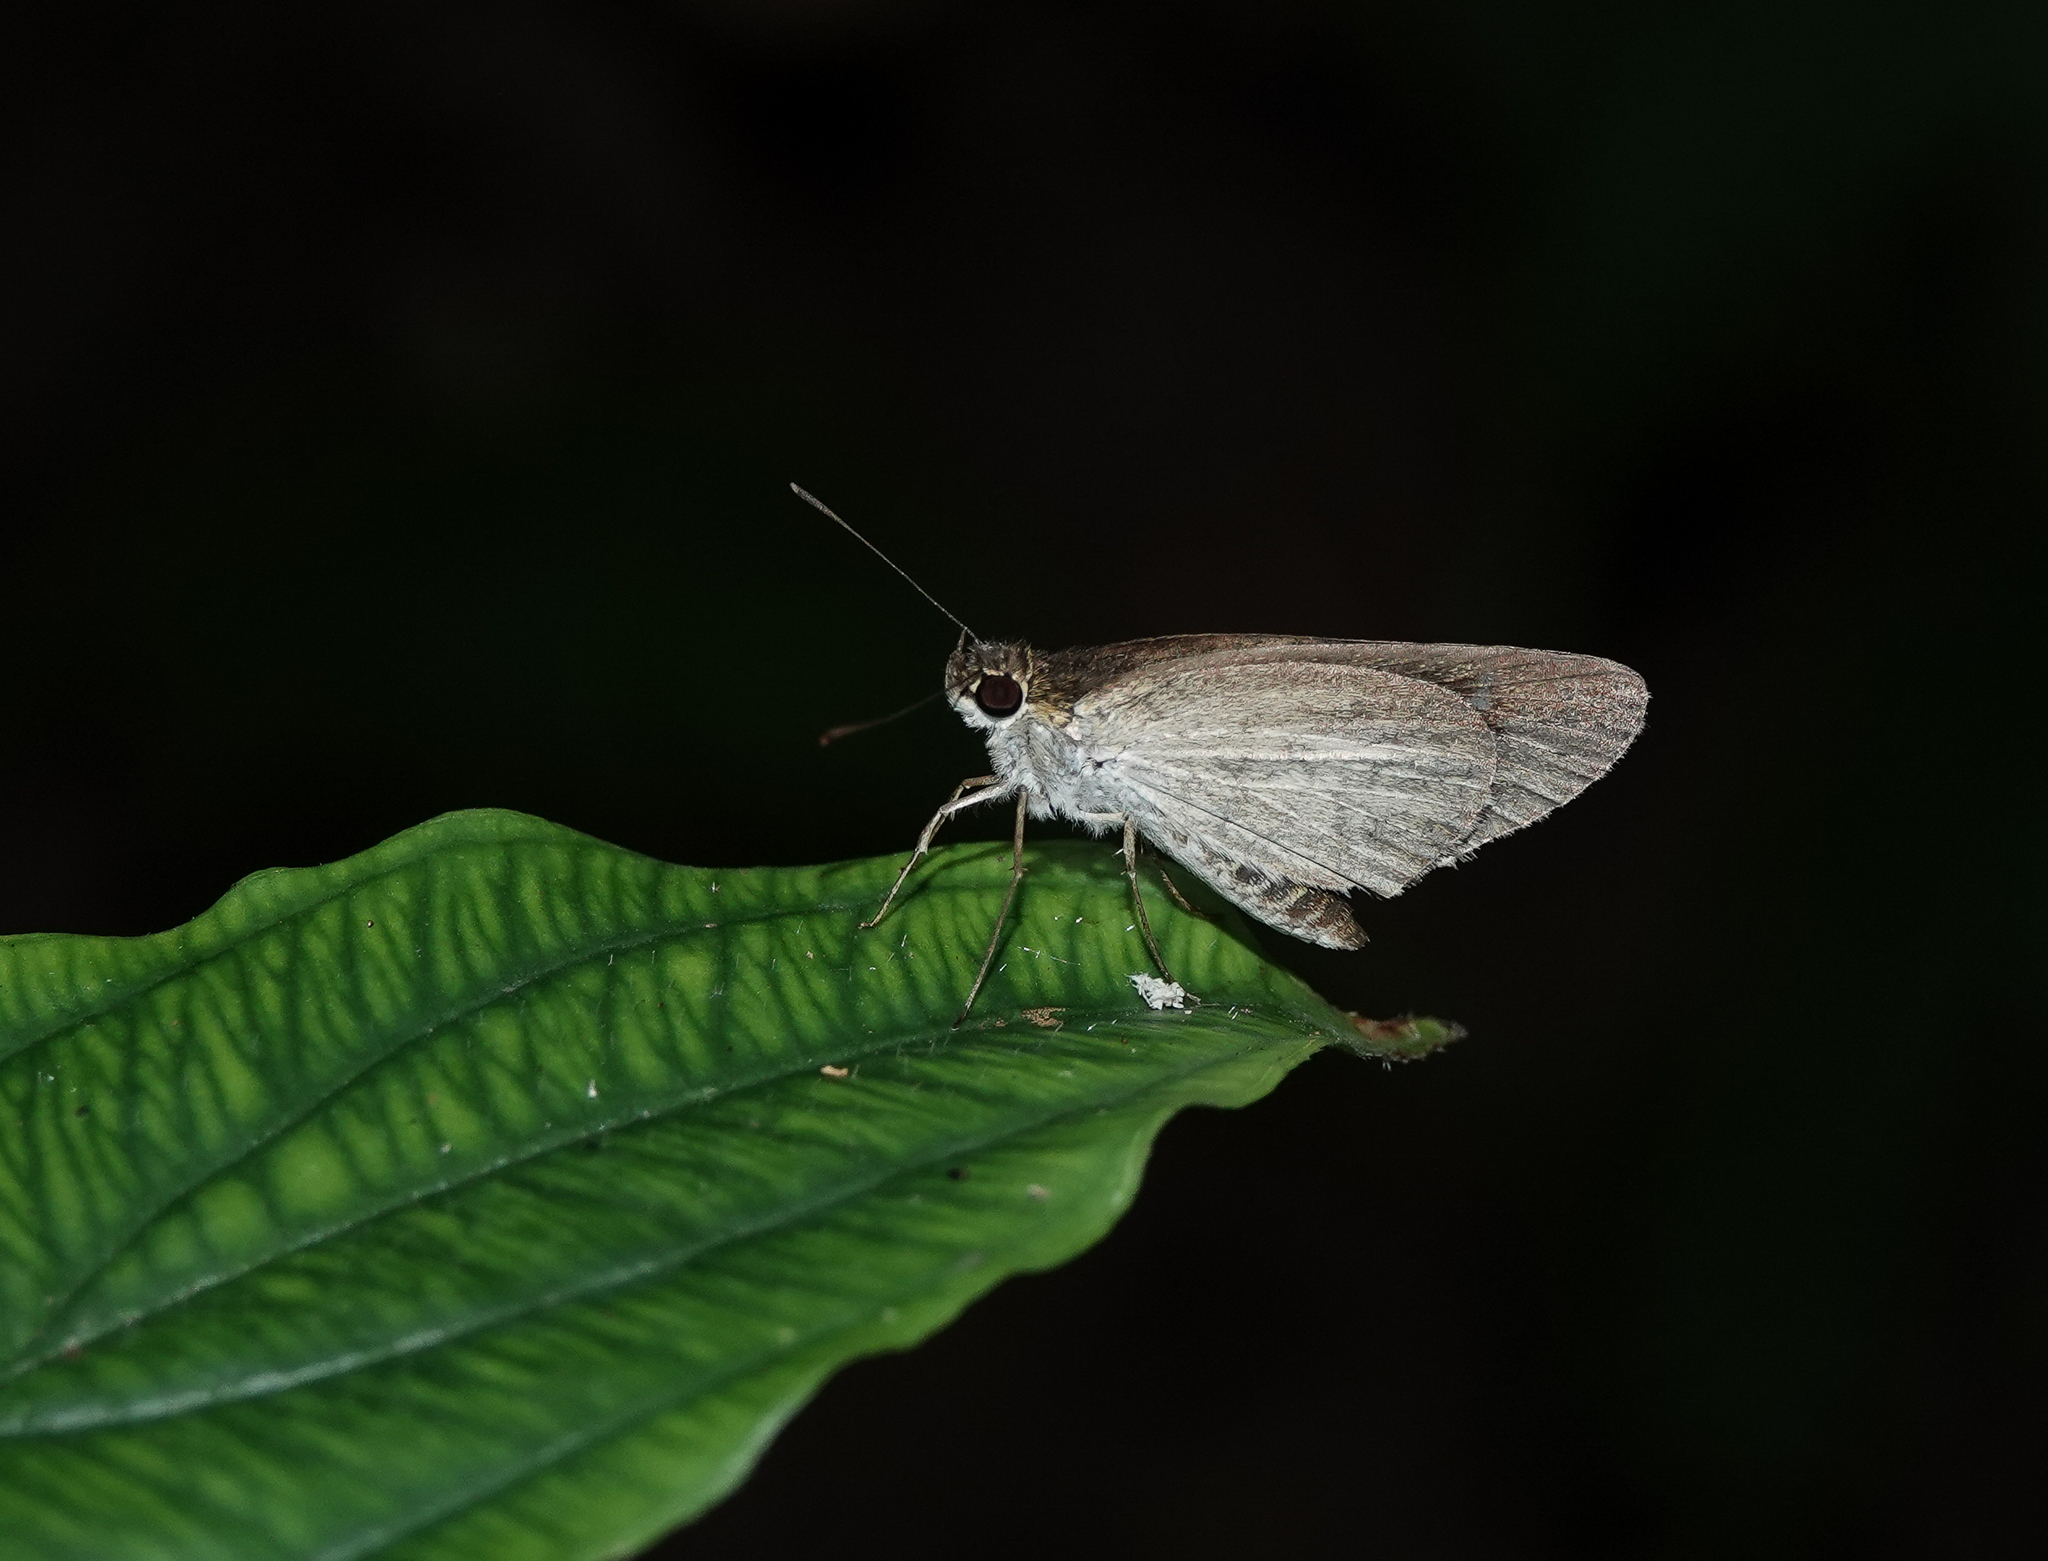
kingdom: Animalia
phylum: Arthropoda
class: Insecta
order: Lepidoptera
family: Hesperiidae
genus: Suada
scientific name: Suada swerga
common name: Grass bob
